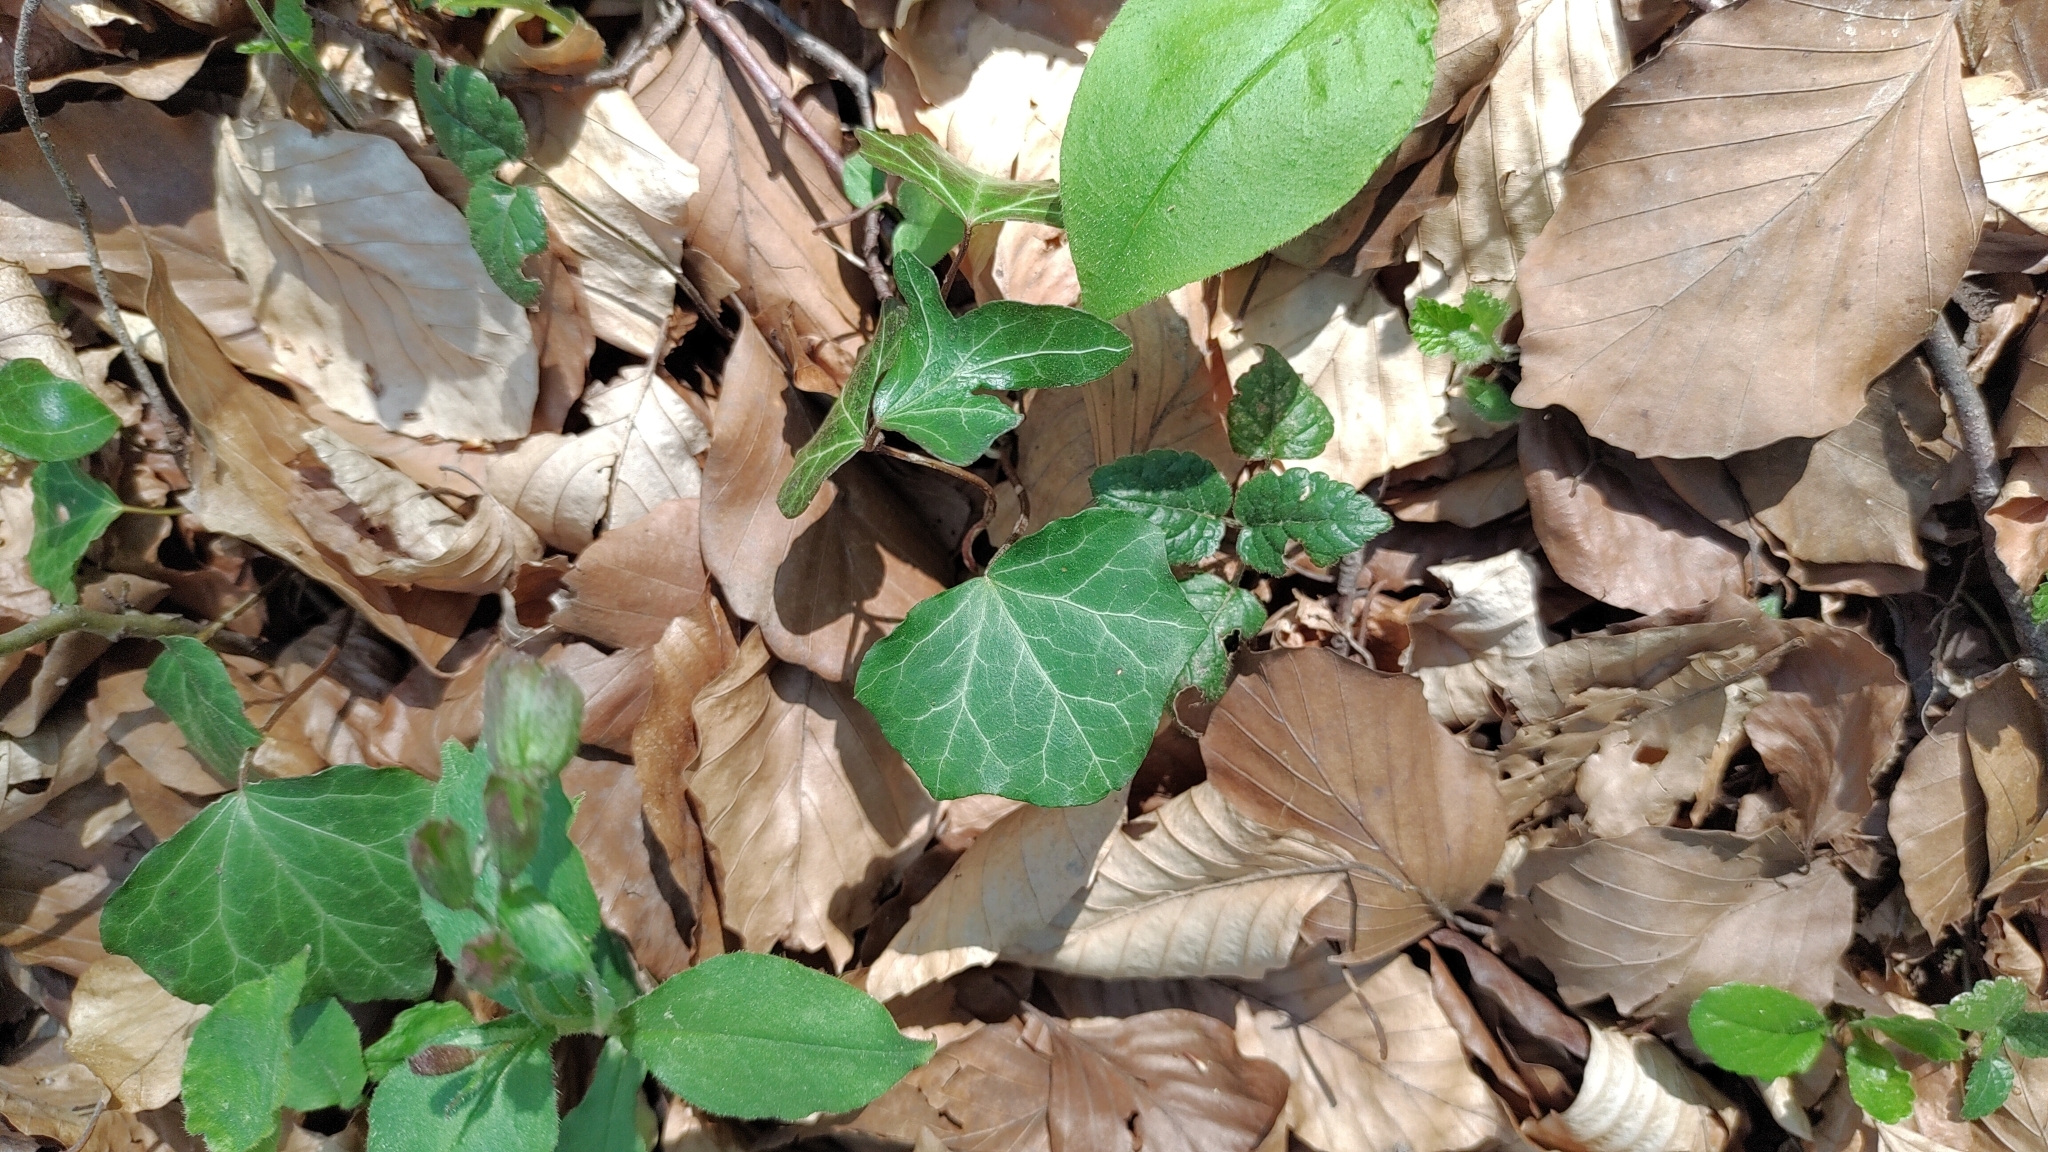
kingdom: Plantae
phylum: Tracheophyta
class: Magnoliopsida
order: Apiales
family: Araliaceae
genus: Hedera
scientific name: Hedera helix
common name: Ivy
